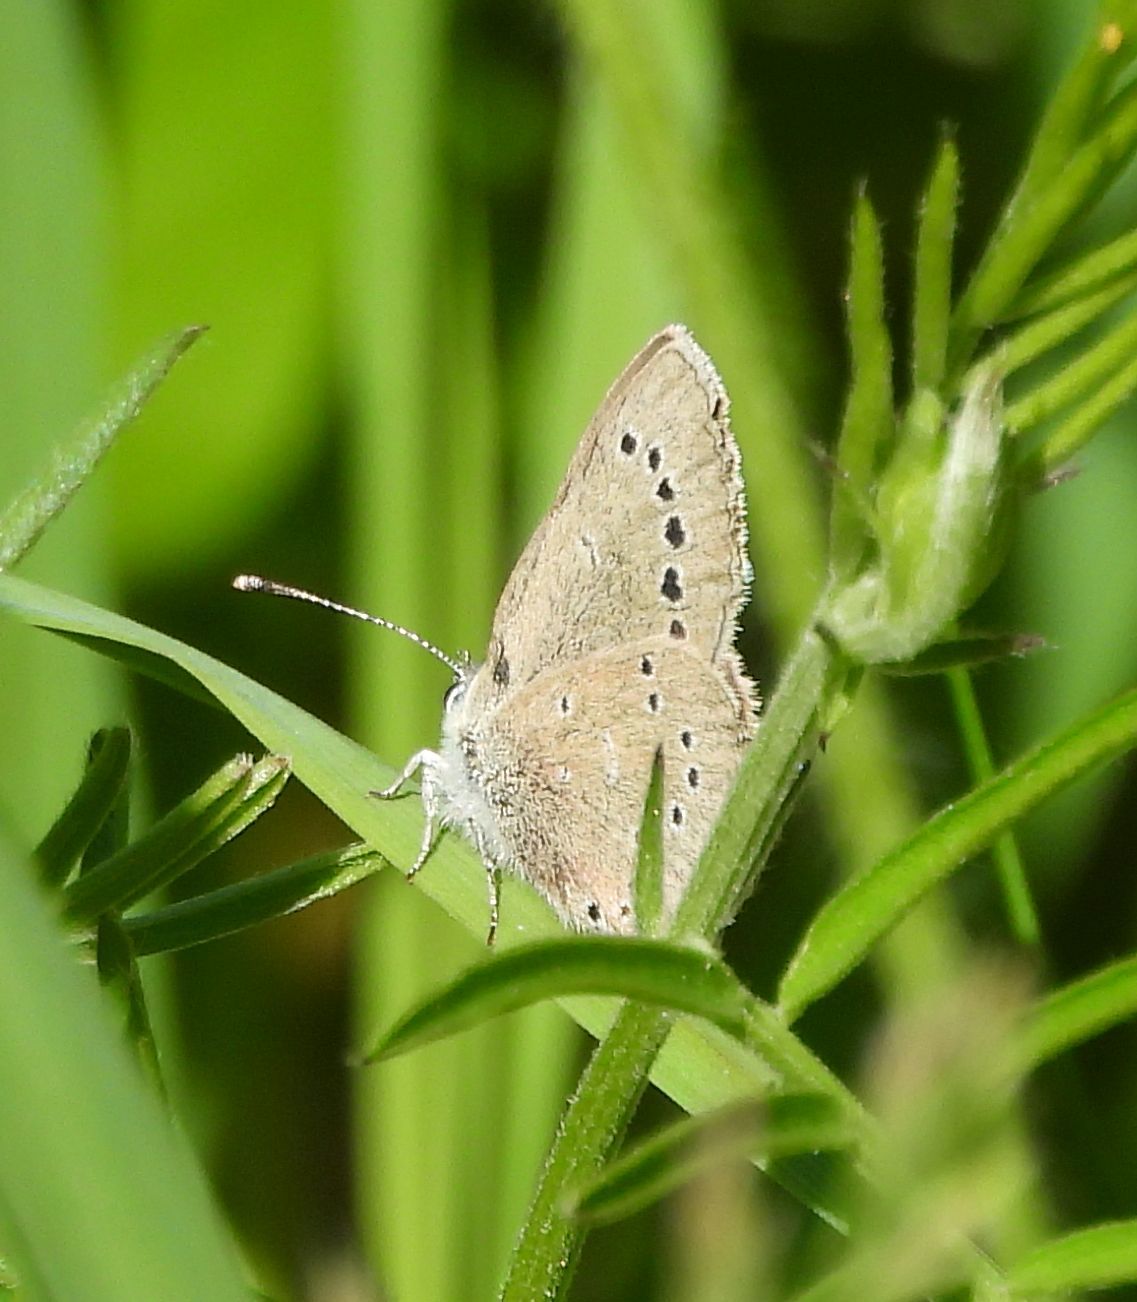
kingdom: Animalia
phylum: Arthropoda
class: Insecta
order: Lepidoptera
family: Lycaenidae
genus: Glaucopsyche
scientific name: Glaucopsyche lygdamus
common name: Silvery blue
